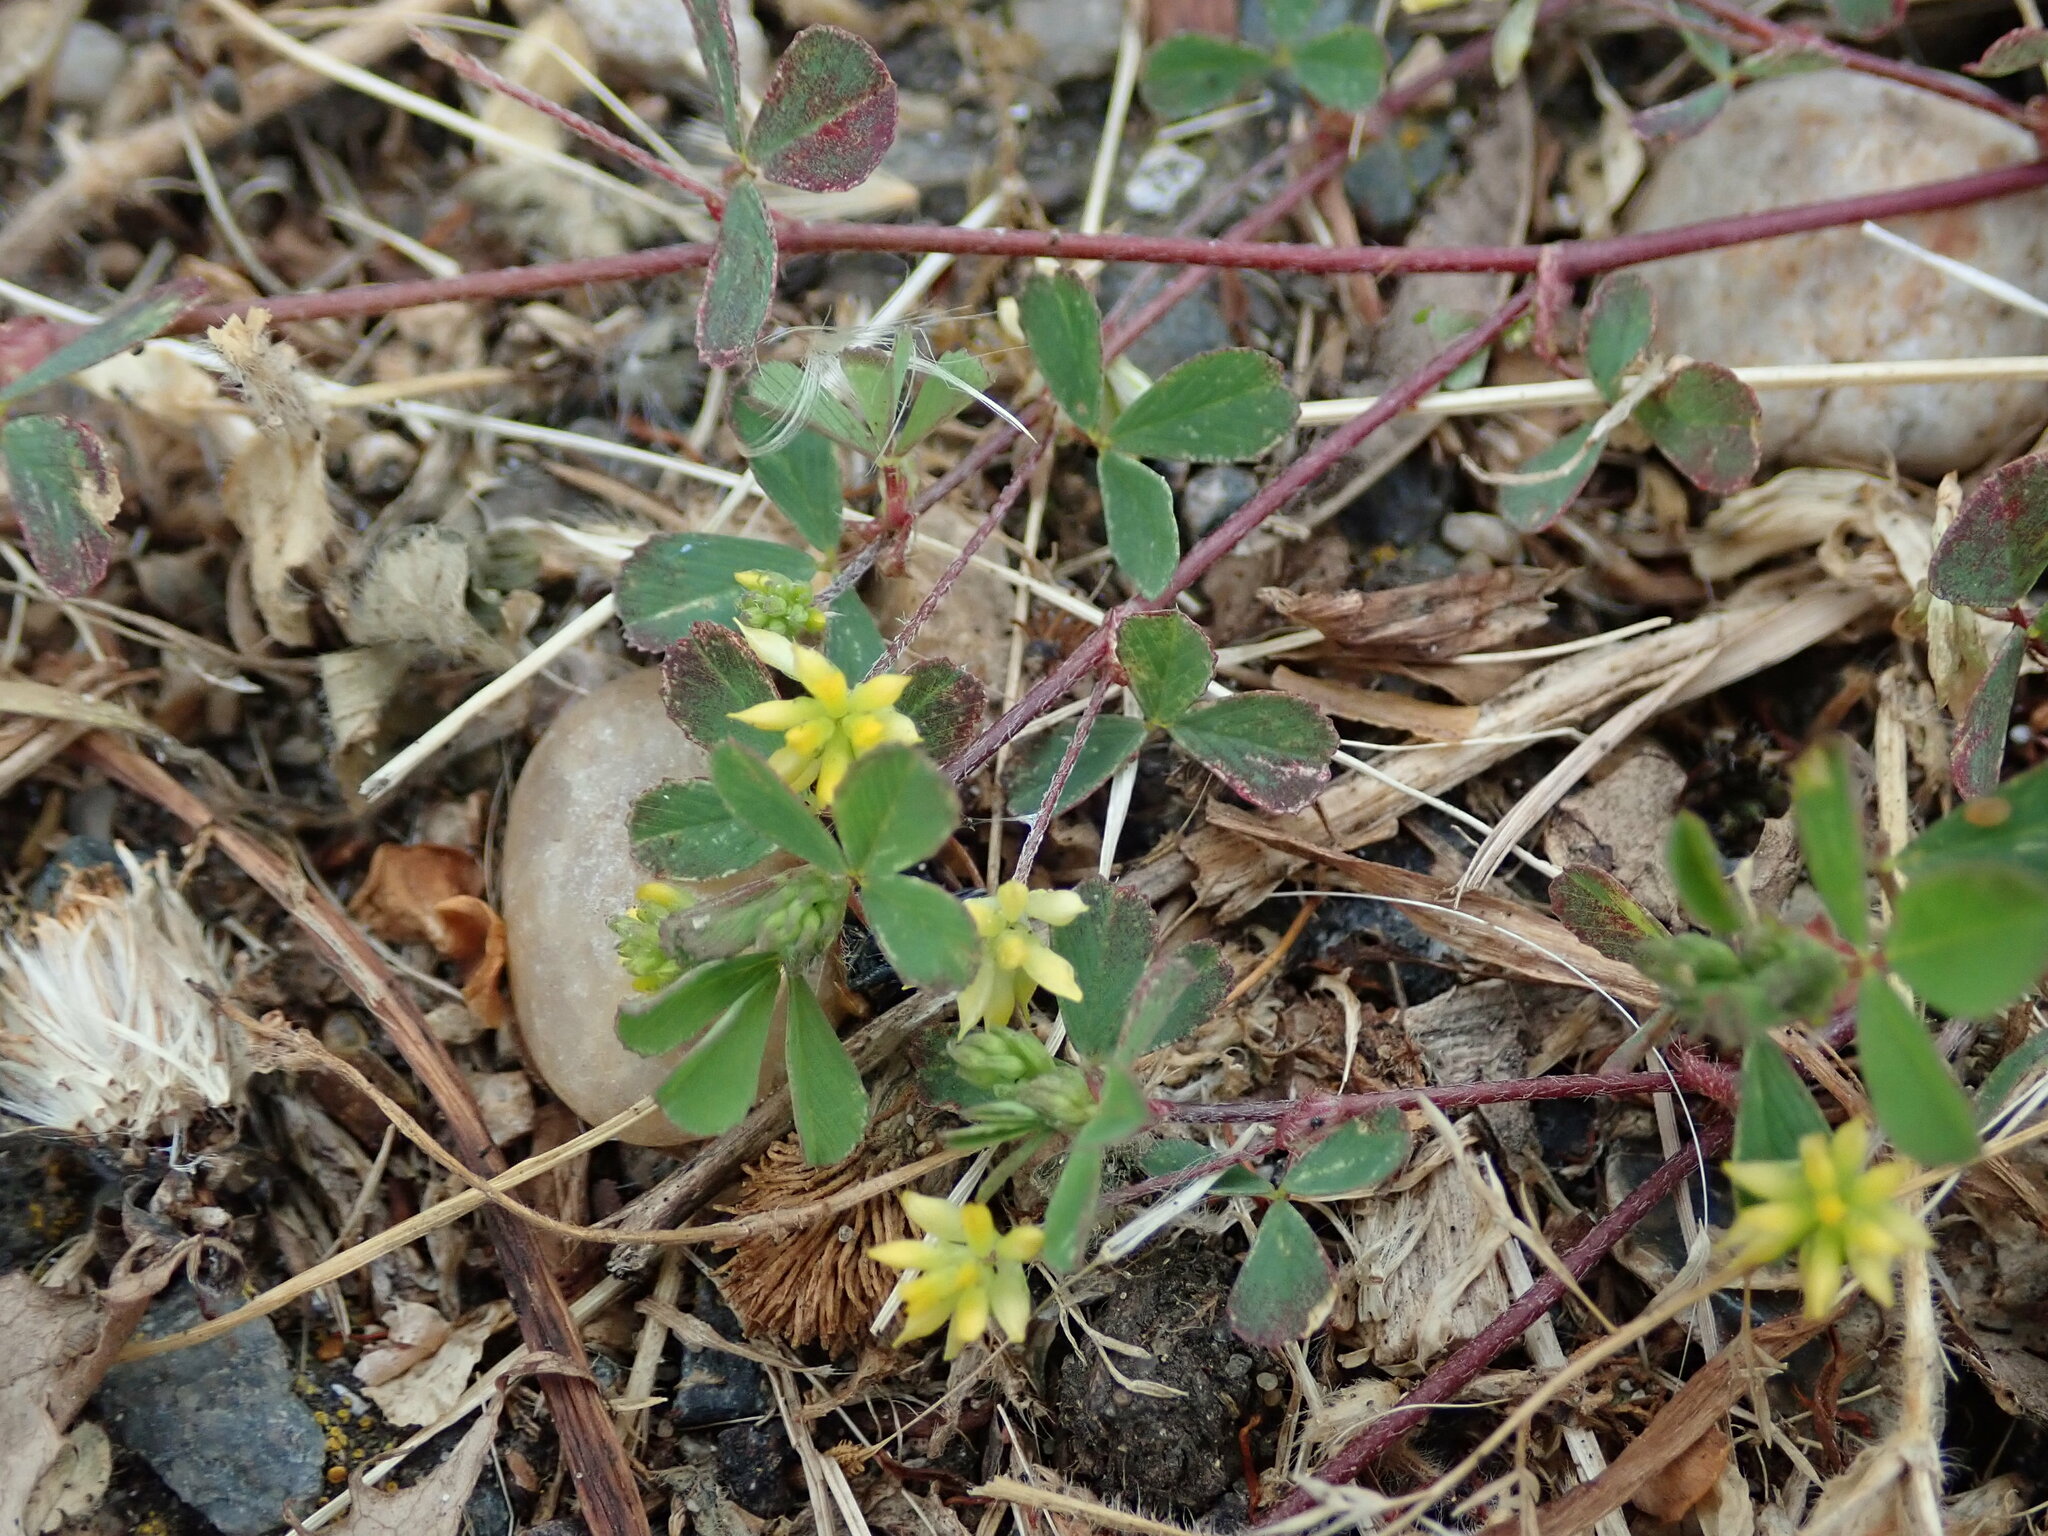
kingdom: Plantae
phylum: Tracheophyta
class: Magnoliopsida
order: Fabales
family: Fabaceae
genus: Trifolium
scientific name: Trifolium dubium
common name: Suckling clover
